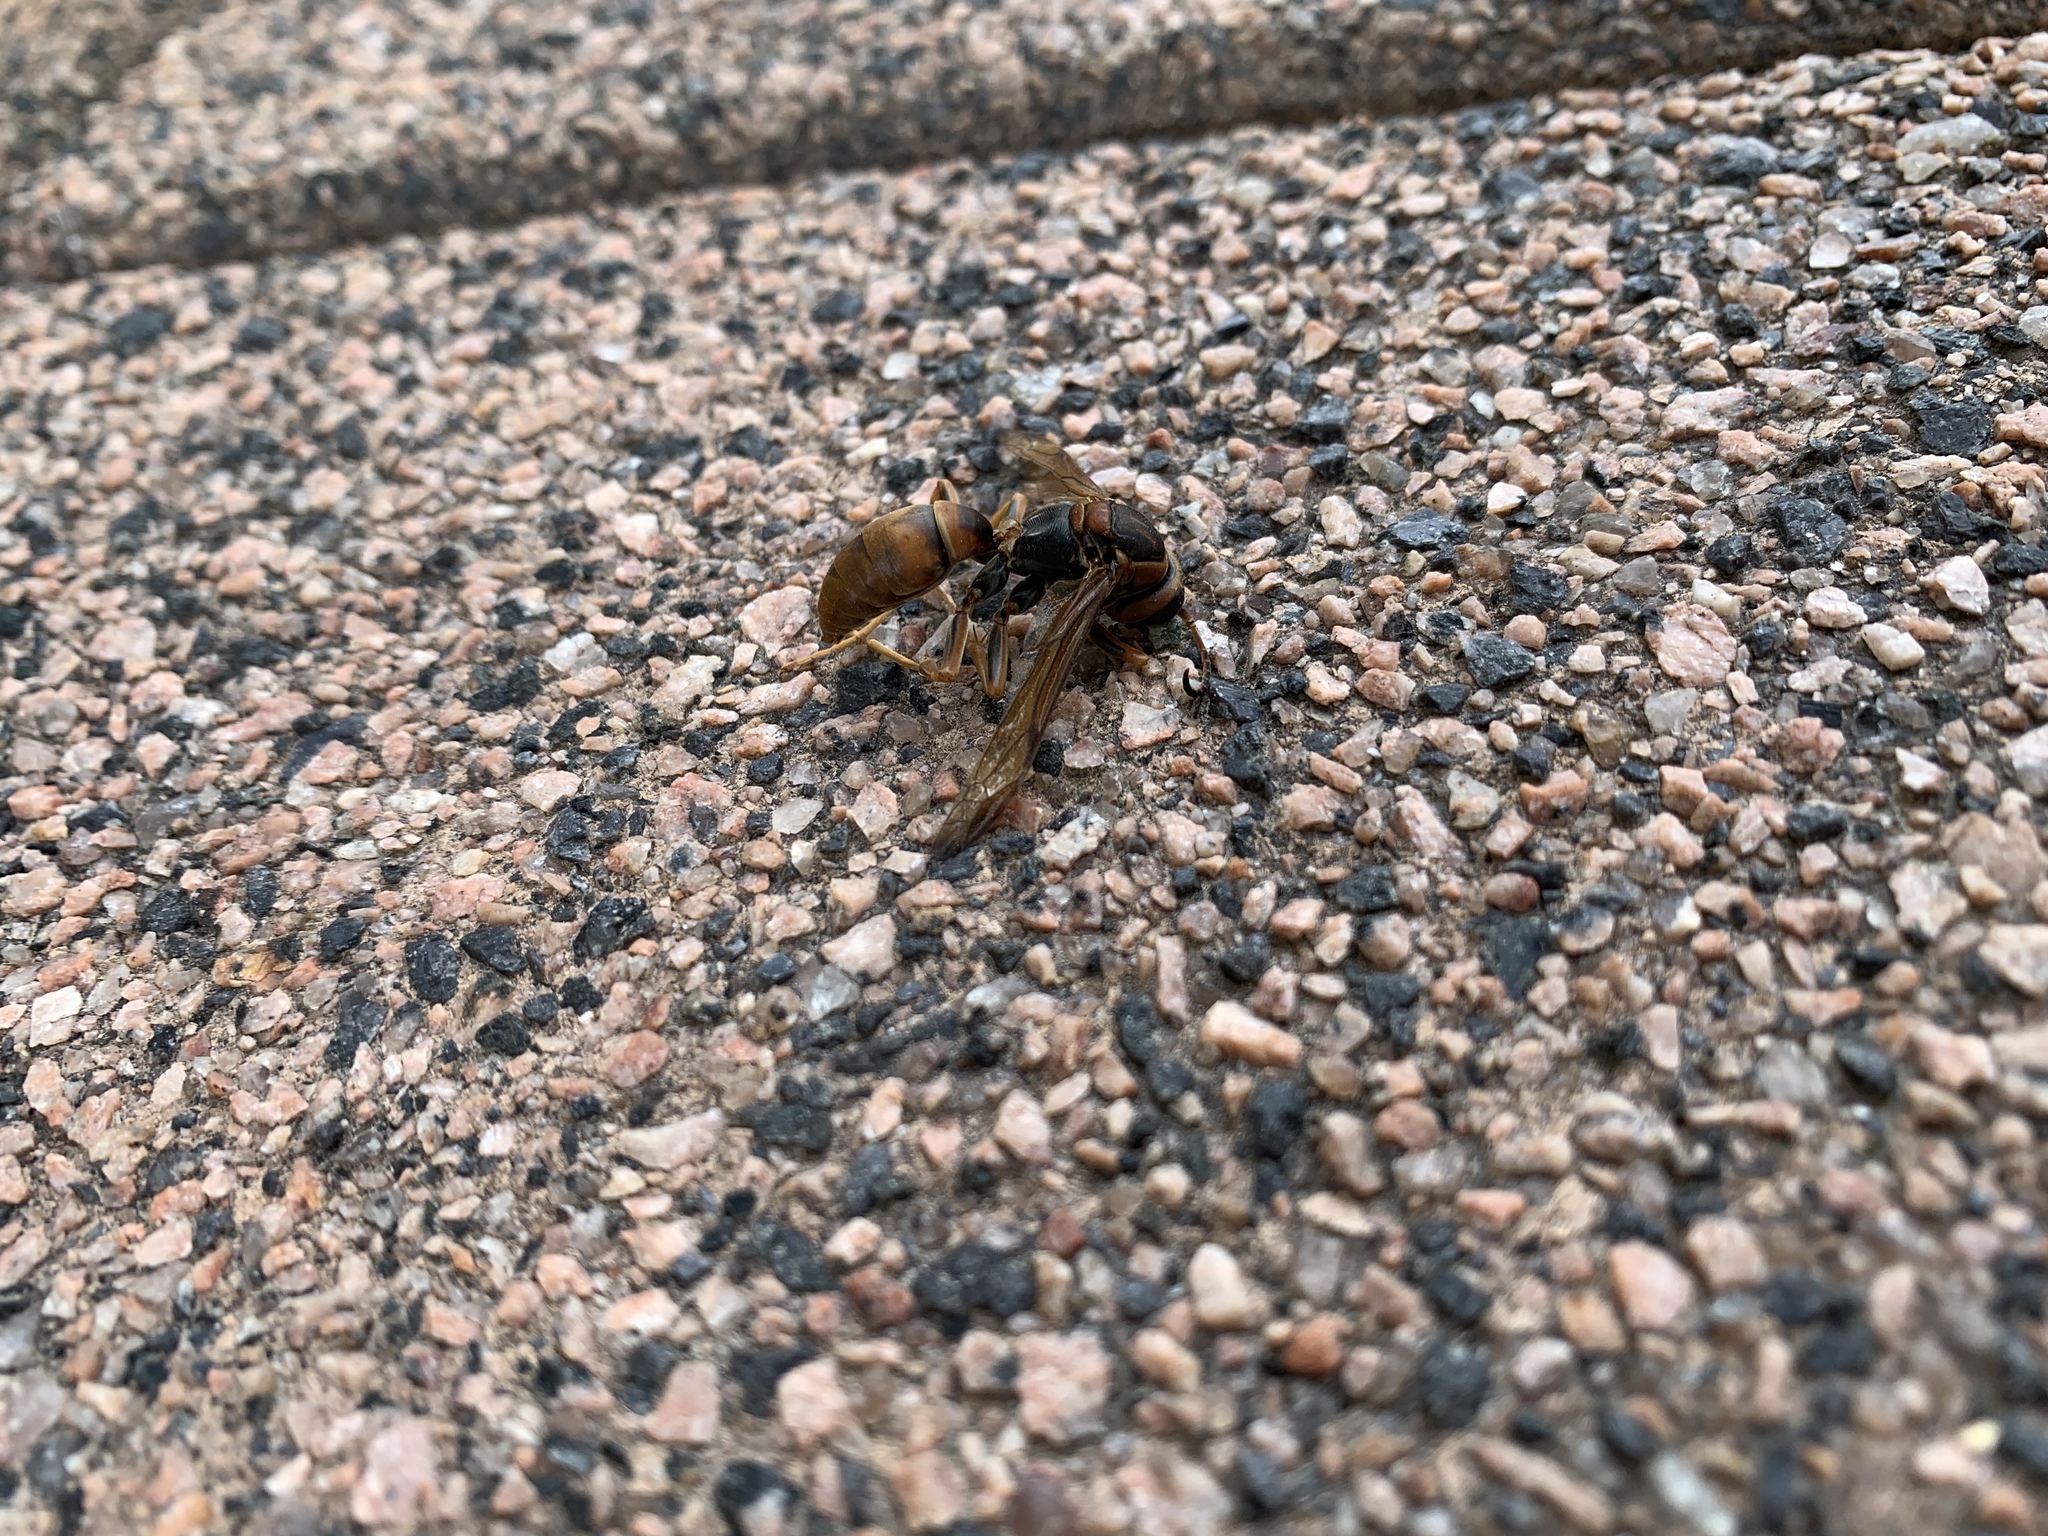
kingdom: Animalia
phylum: Arthropoda
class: Insecta
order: Hymenoptera
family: Vespidae
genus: Fuscopolistes
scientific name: Fuscopolistes
